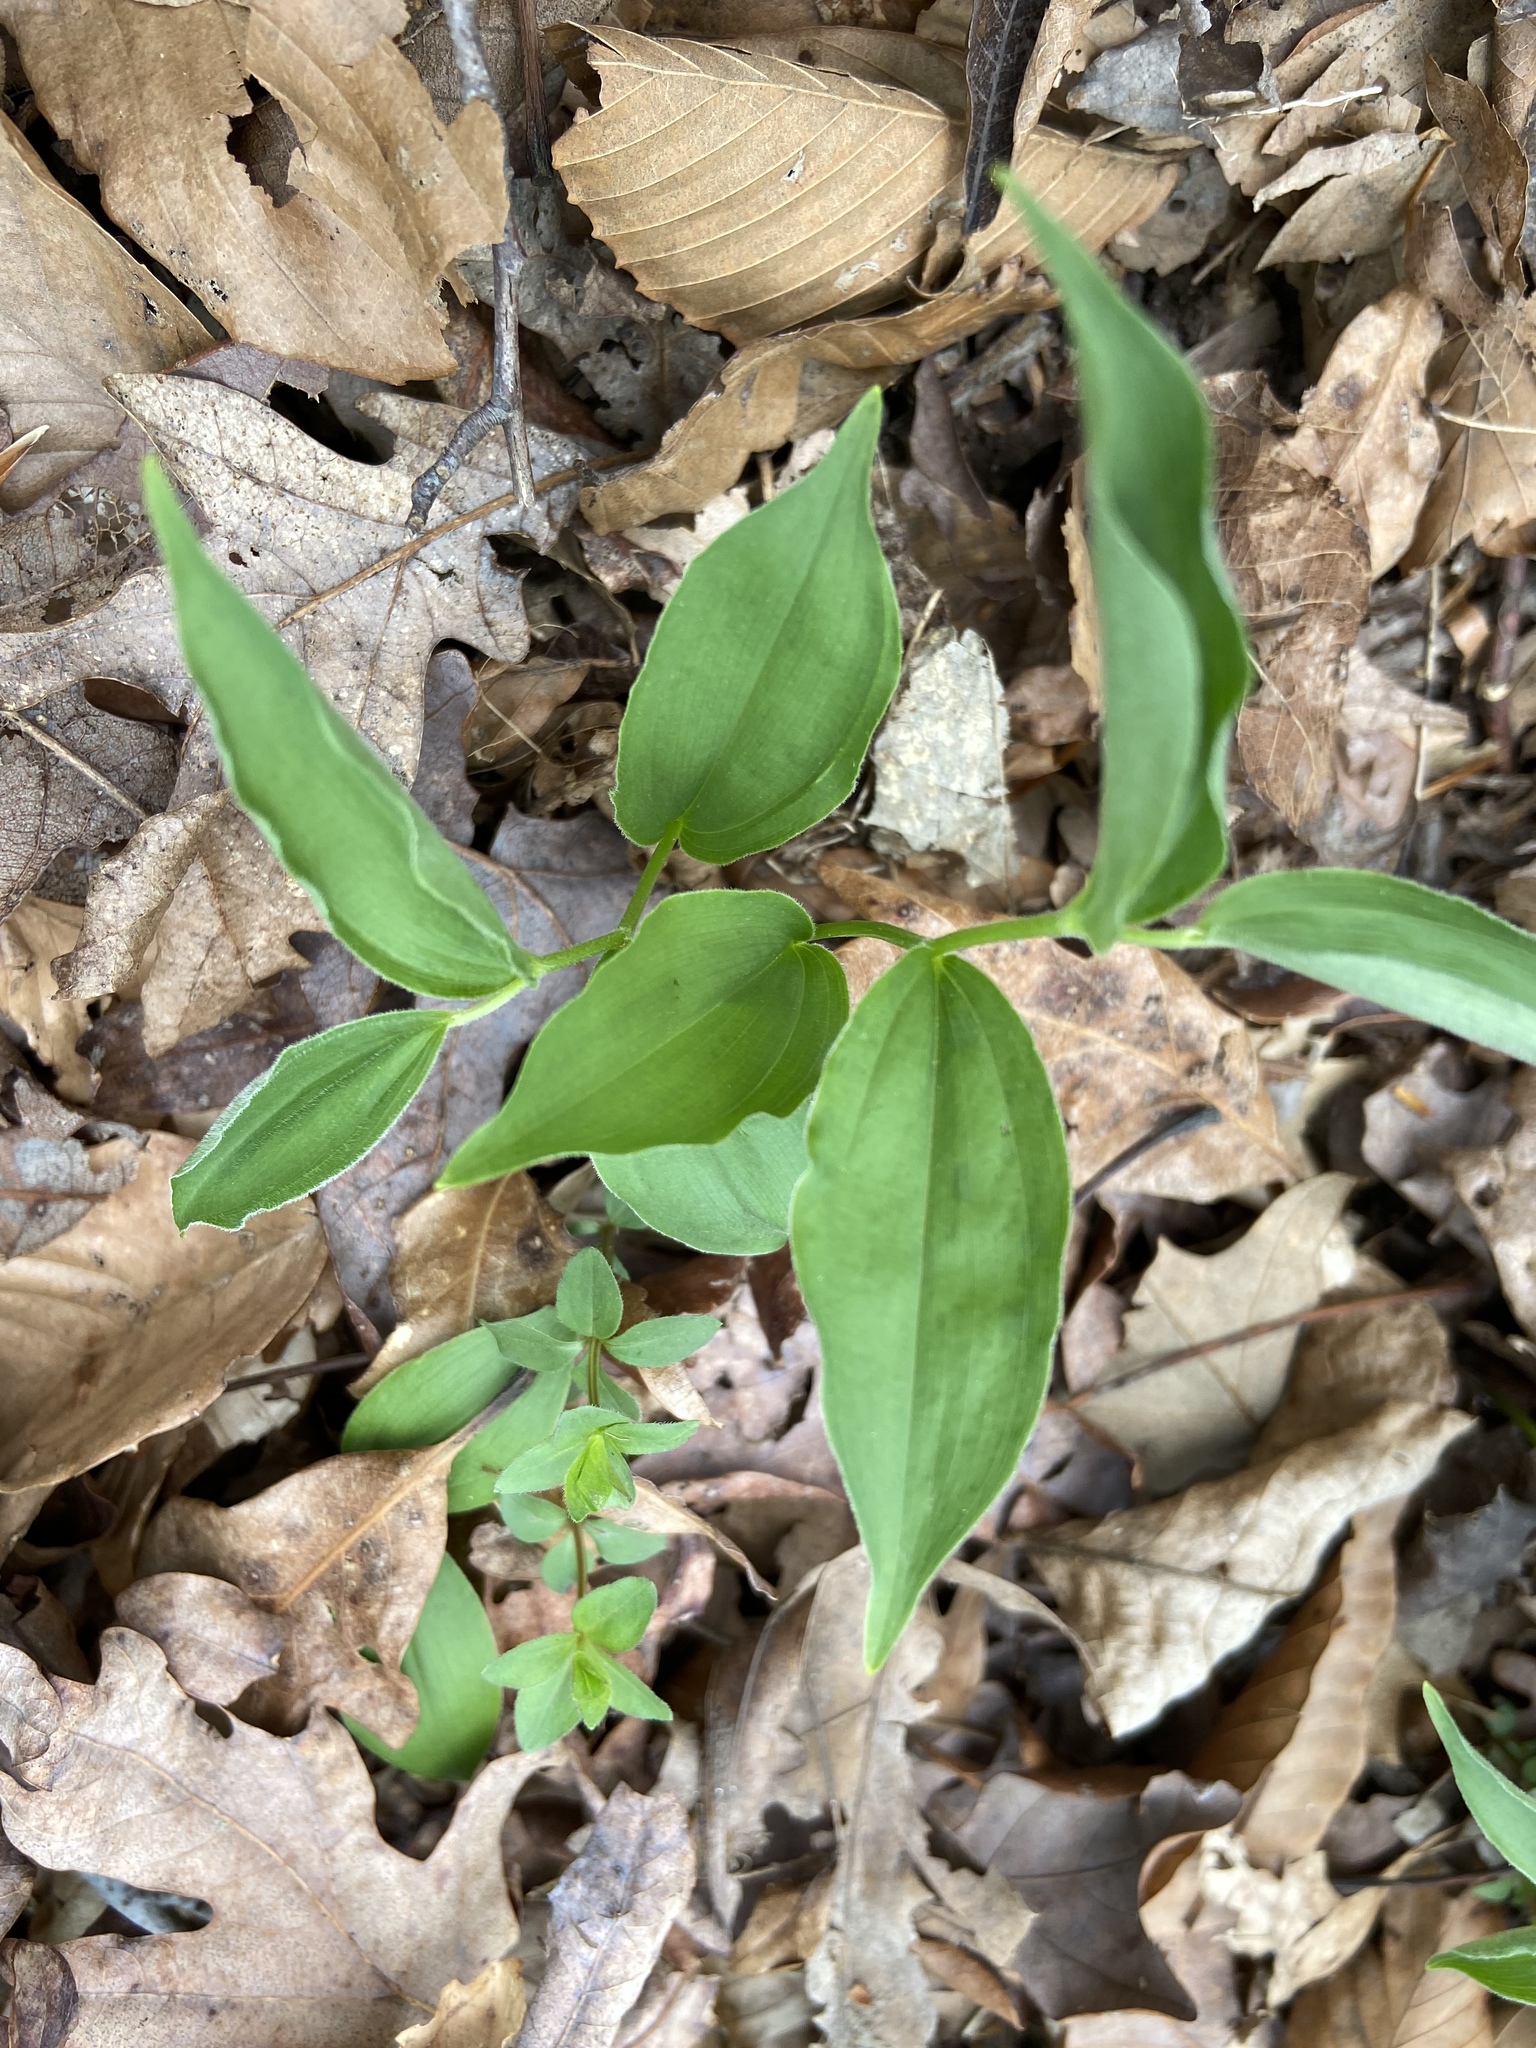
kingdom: Plantae
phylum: Tracheophyta
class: Liliopsida
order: Asparagales
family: Asparagaceae
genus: Maianthemum
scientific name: Maianthemum racemosum
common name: False spikenard
